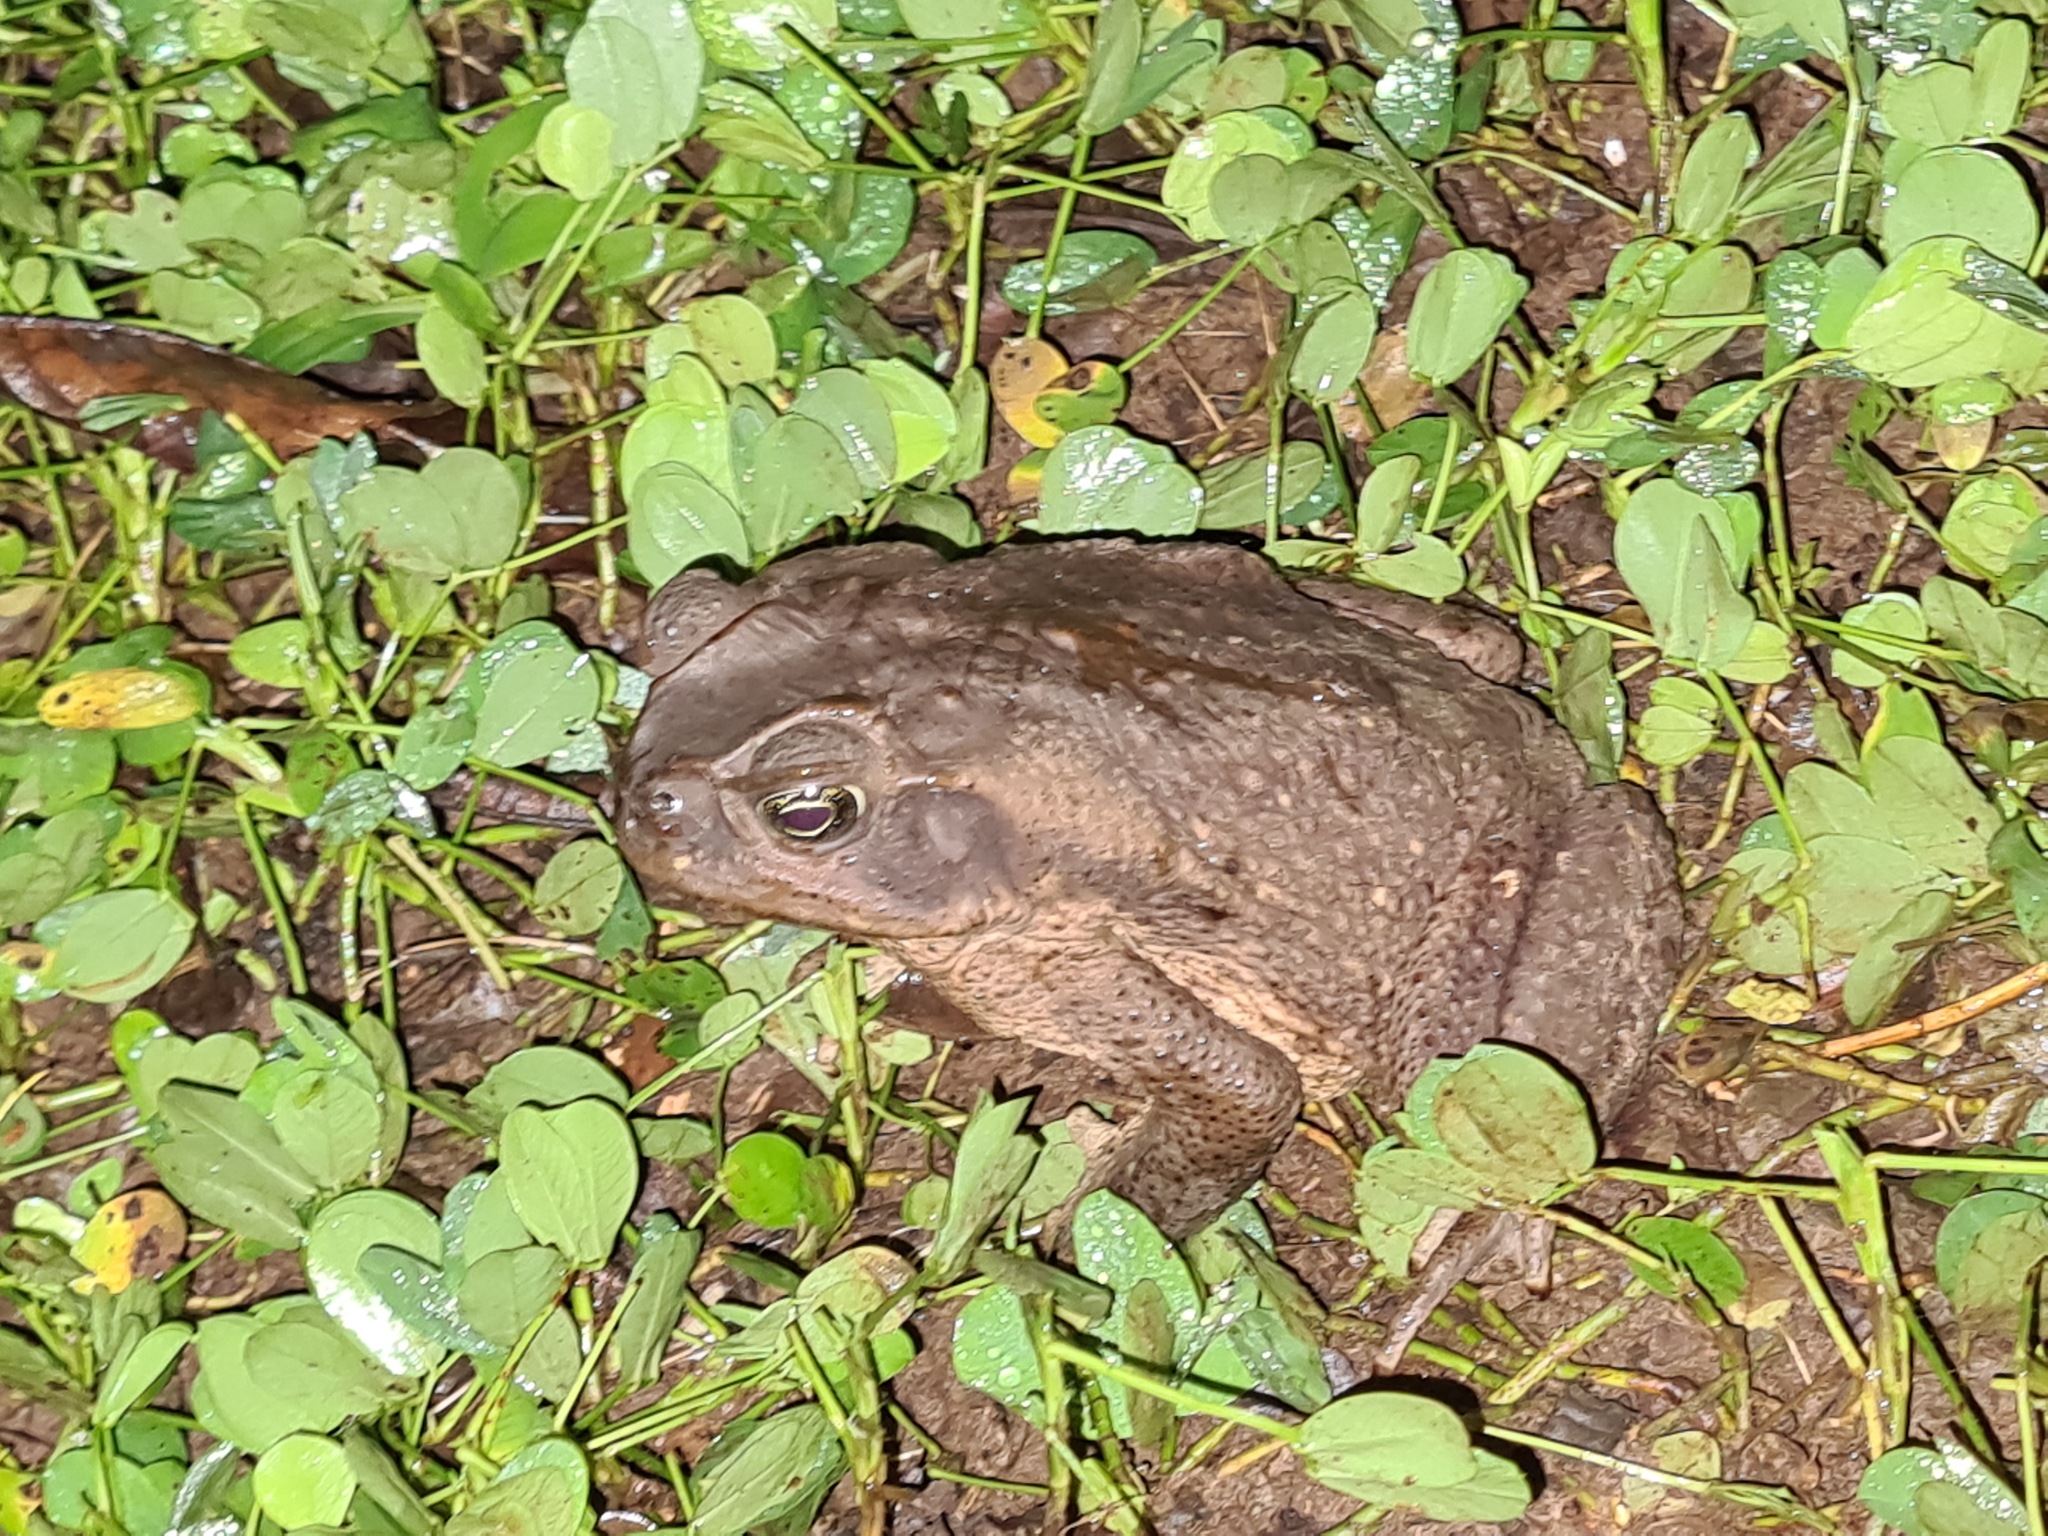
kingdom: Animalia
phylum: Chordata
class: Amphibia
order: Anura
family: Bufonidae
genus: Rhinella
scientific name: Rhinella
